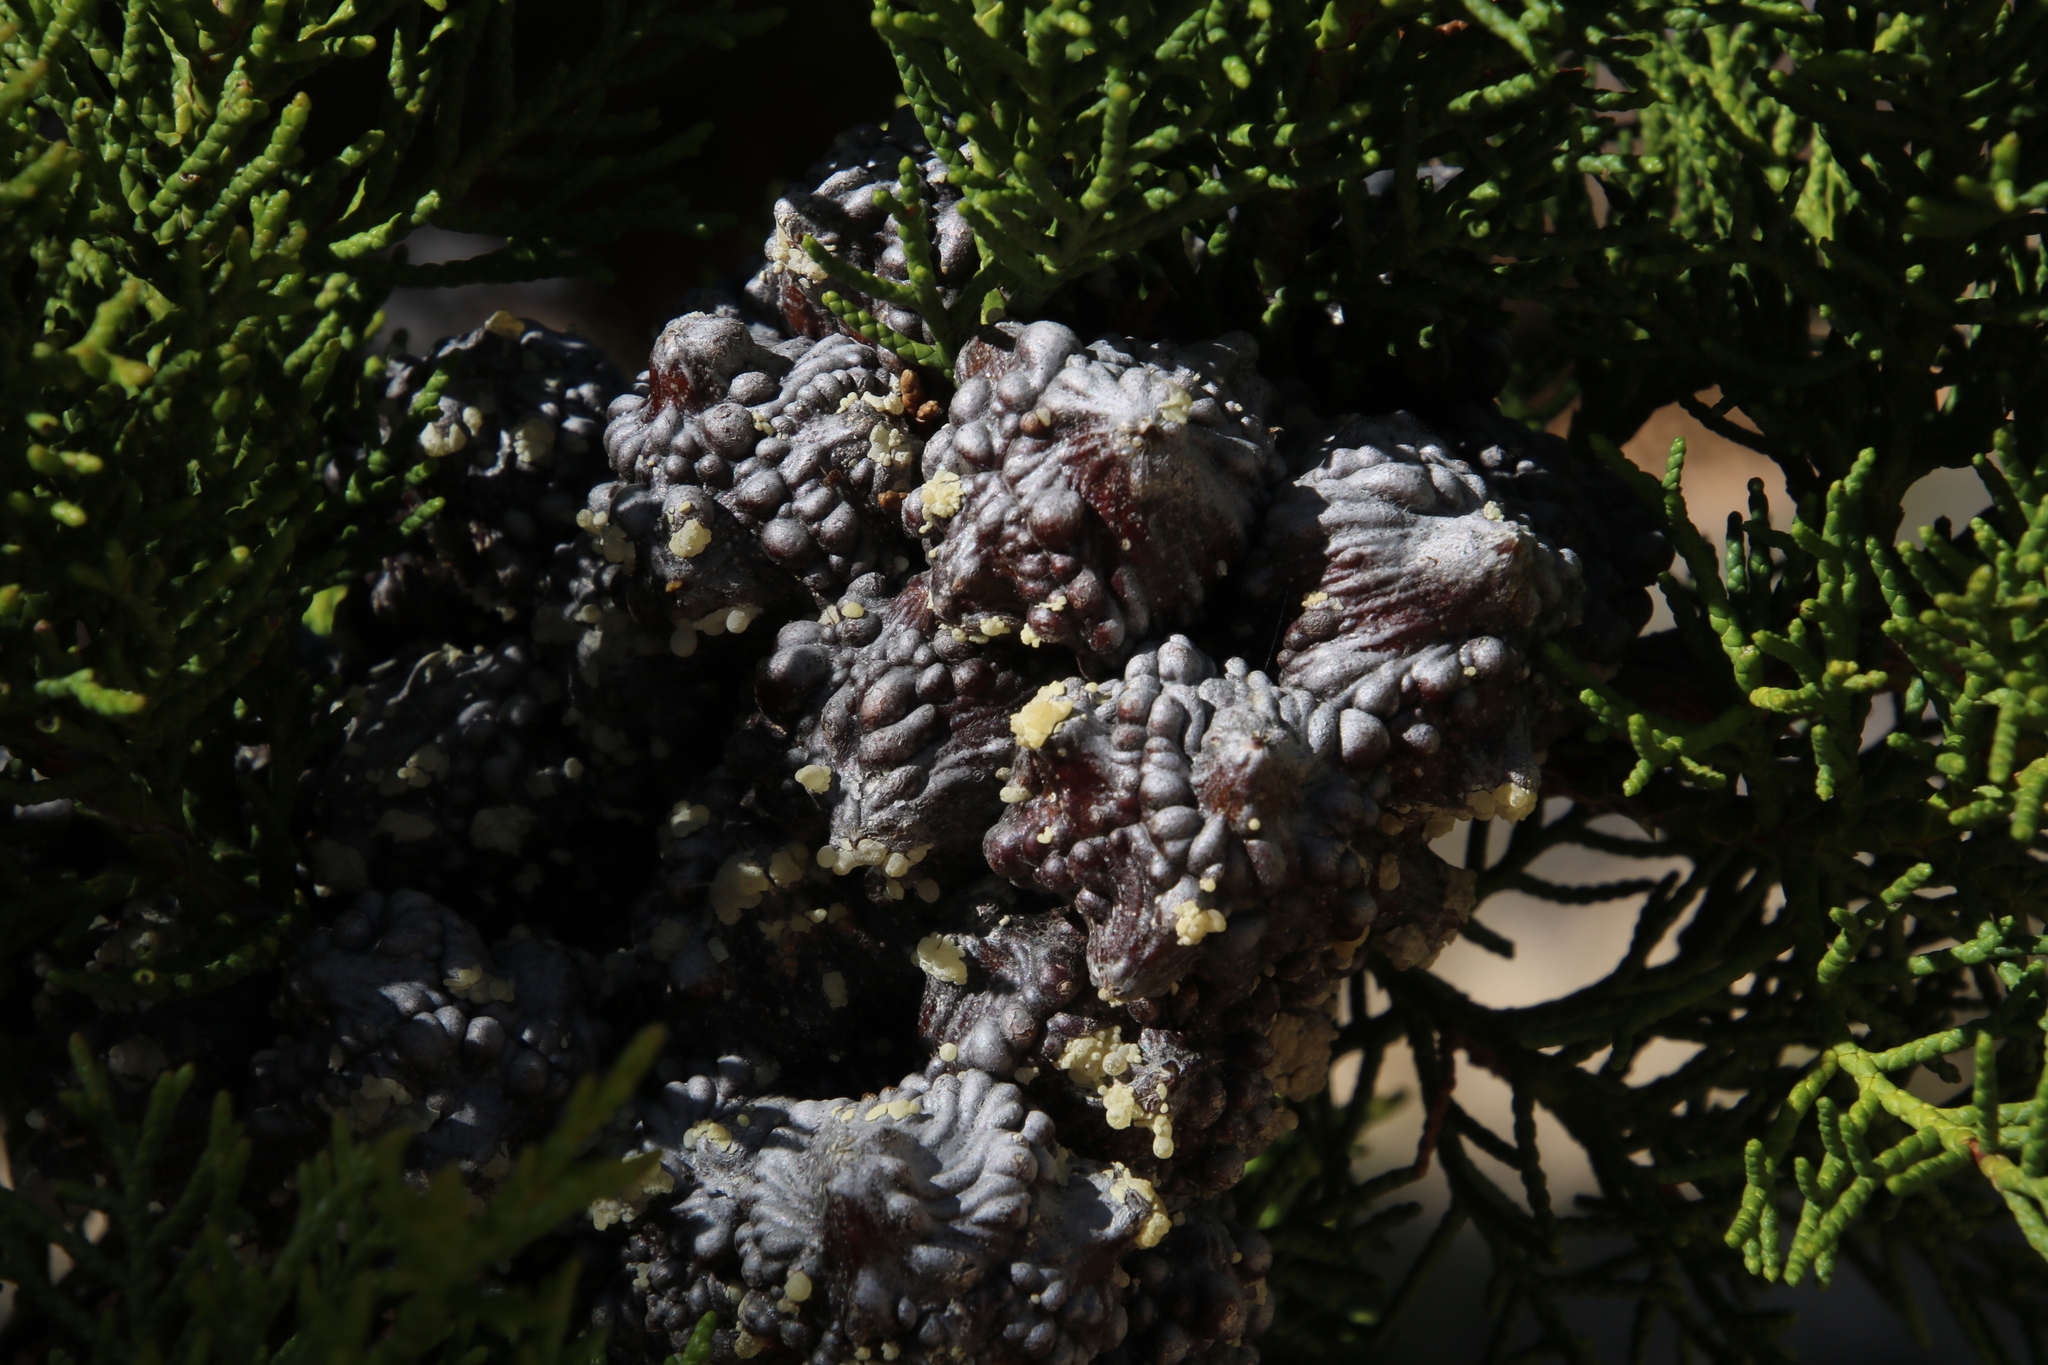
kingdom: Plantae
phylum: Tracheophyta
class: Pinopsida
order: Pinales
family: Cupressaceae
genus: Widdringtonia
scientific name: Widdringtonia nodiflora
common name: Cape cypress
